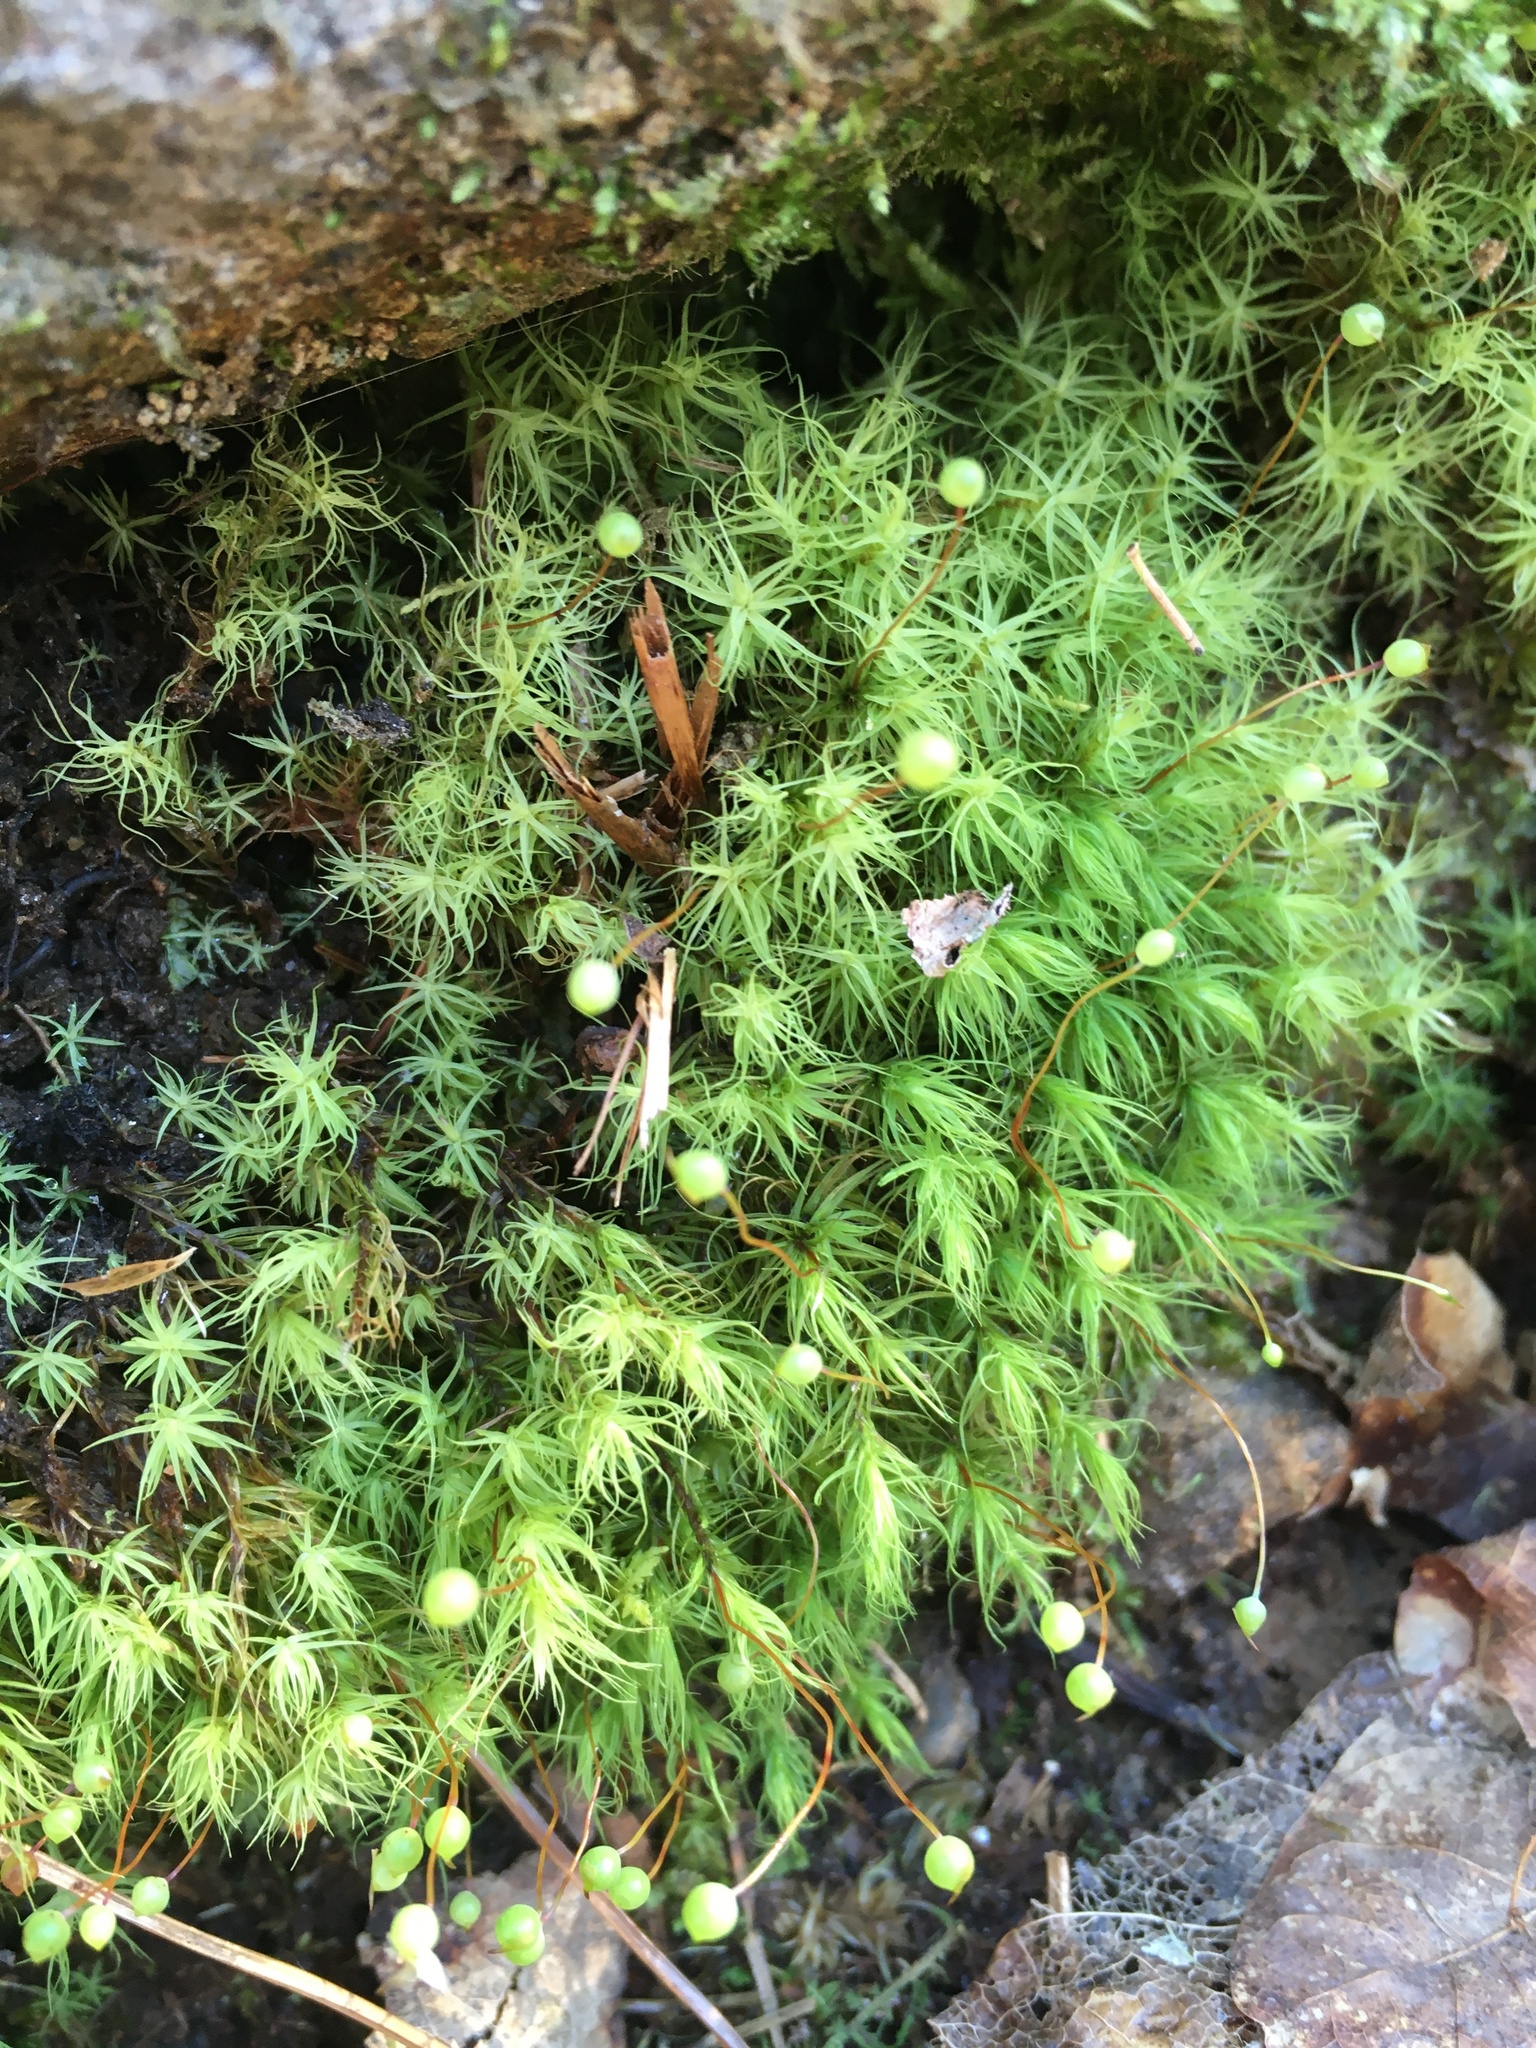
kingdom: Plantae
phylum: Bryophyta
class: Bryopsida
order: Bartramiales
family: Bartramiaceae
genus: Bartramia
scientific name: Bartramia ithyphylla
